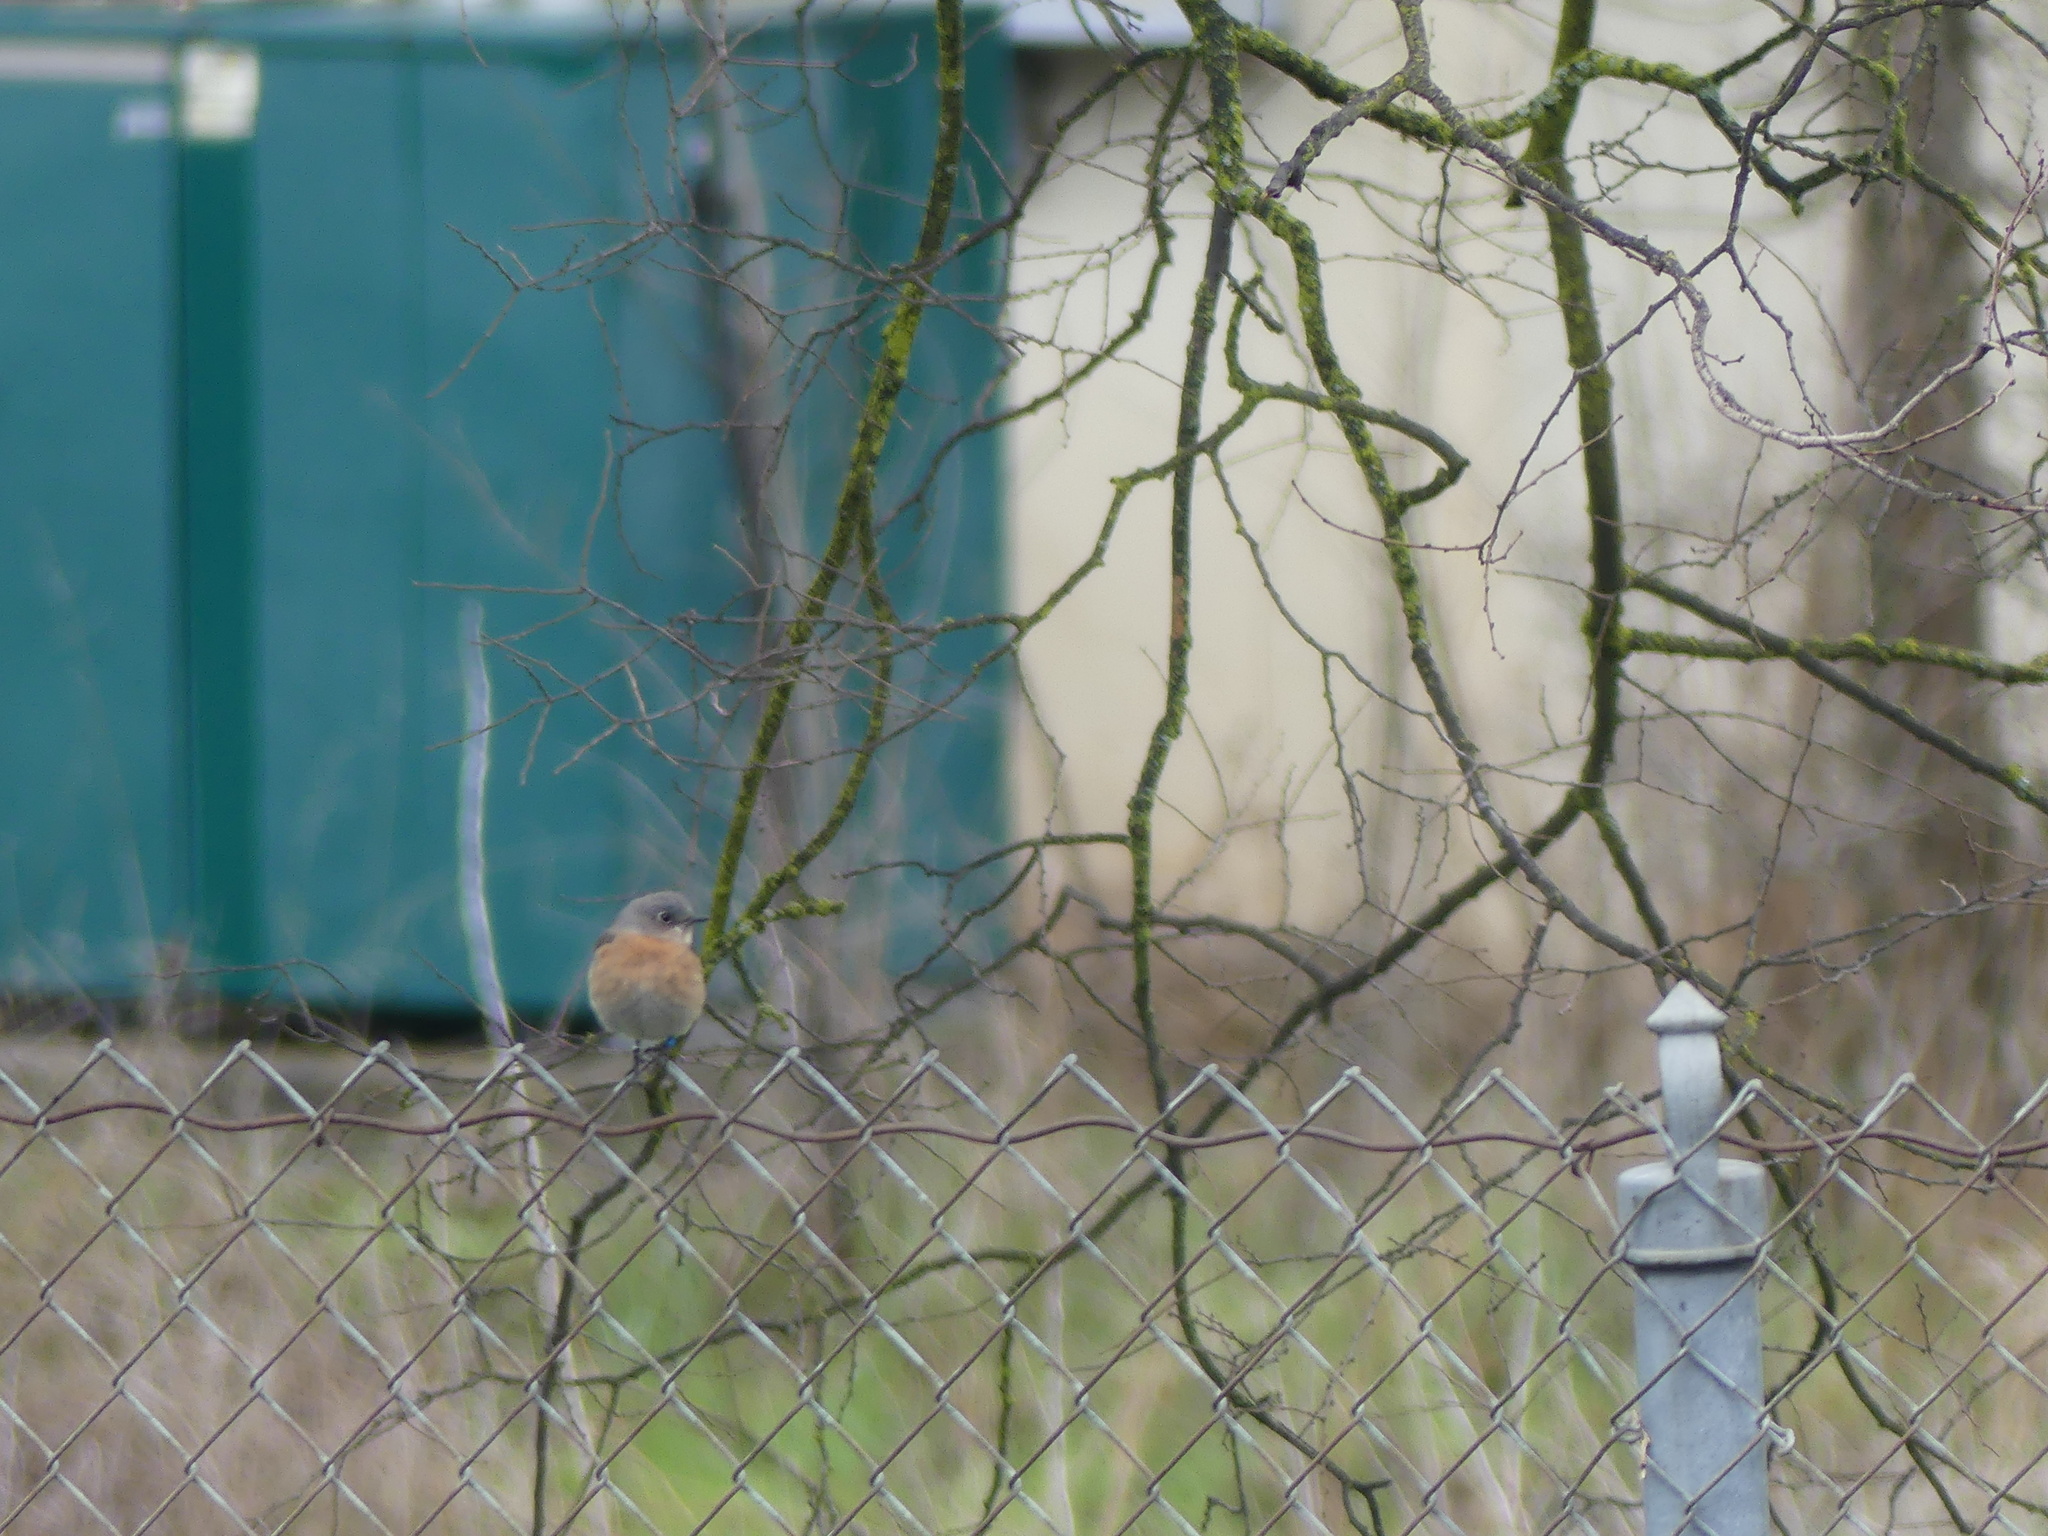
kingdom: Animalia
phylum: Chordata
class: Aves
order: Passeriformes
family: Turdidae
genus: Sialia
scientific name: Sialia mexicana
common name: Western bluebird
